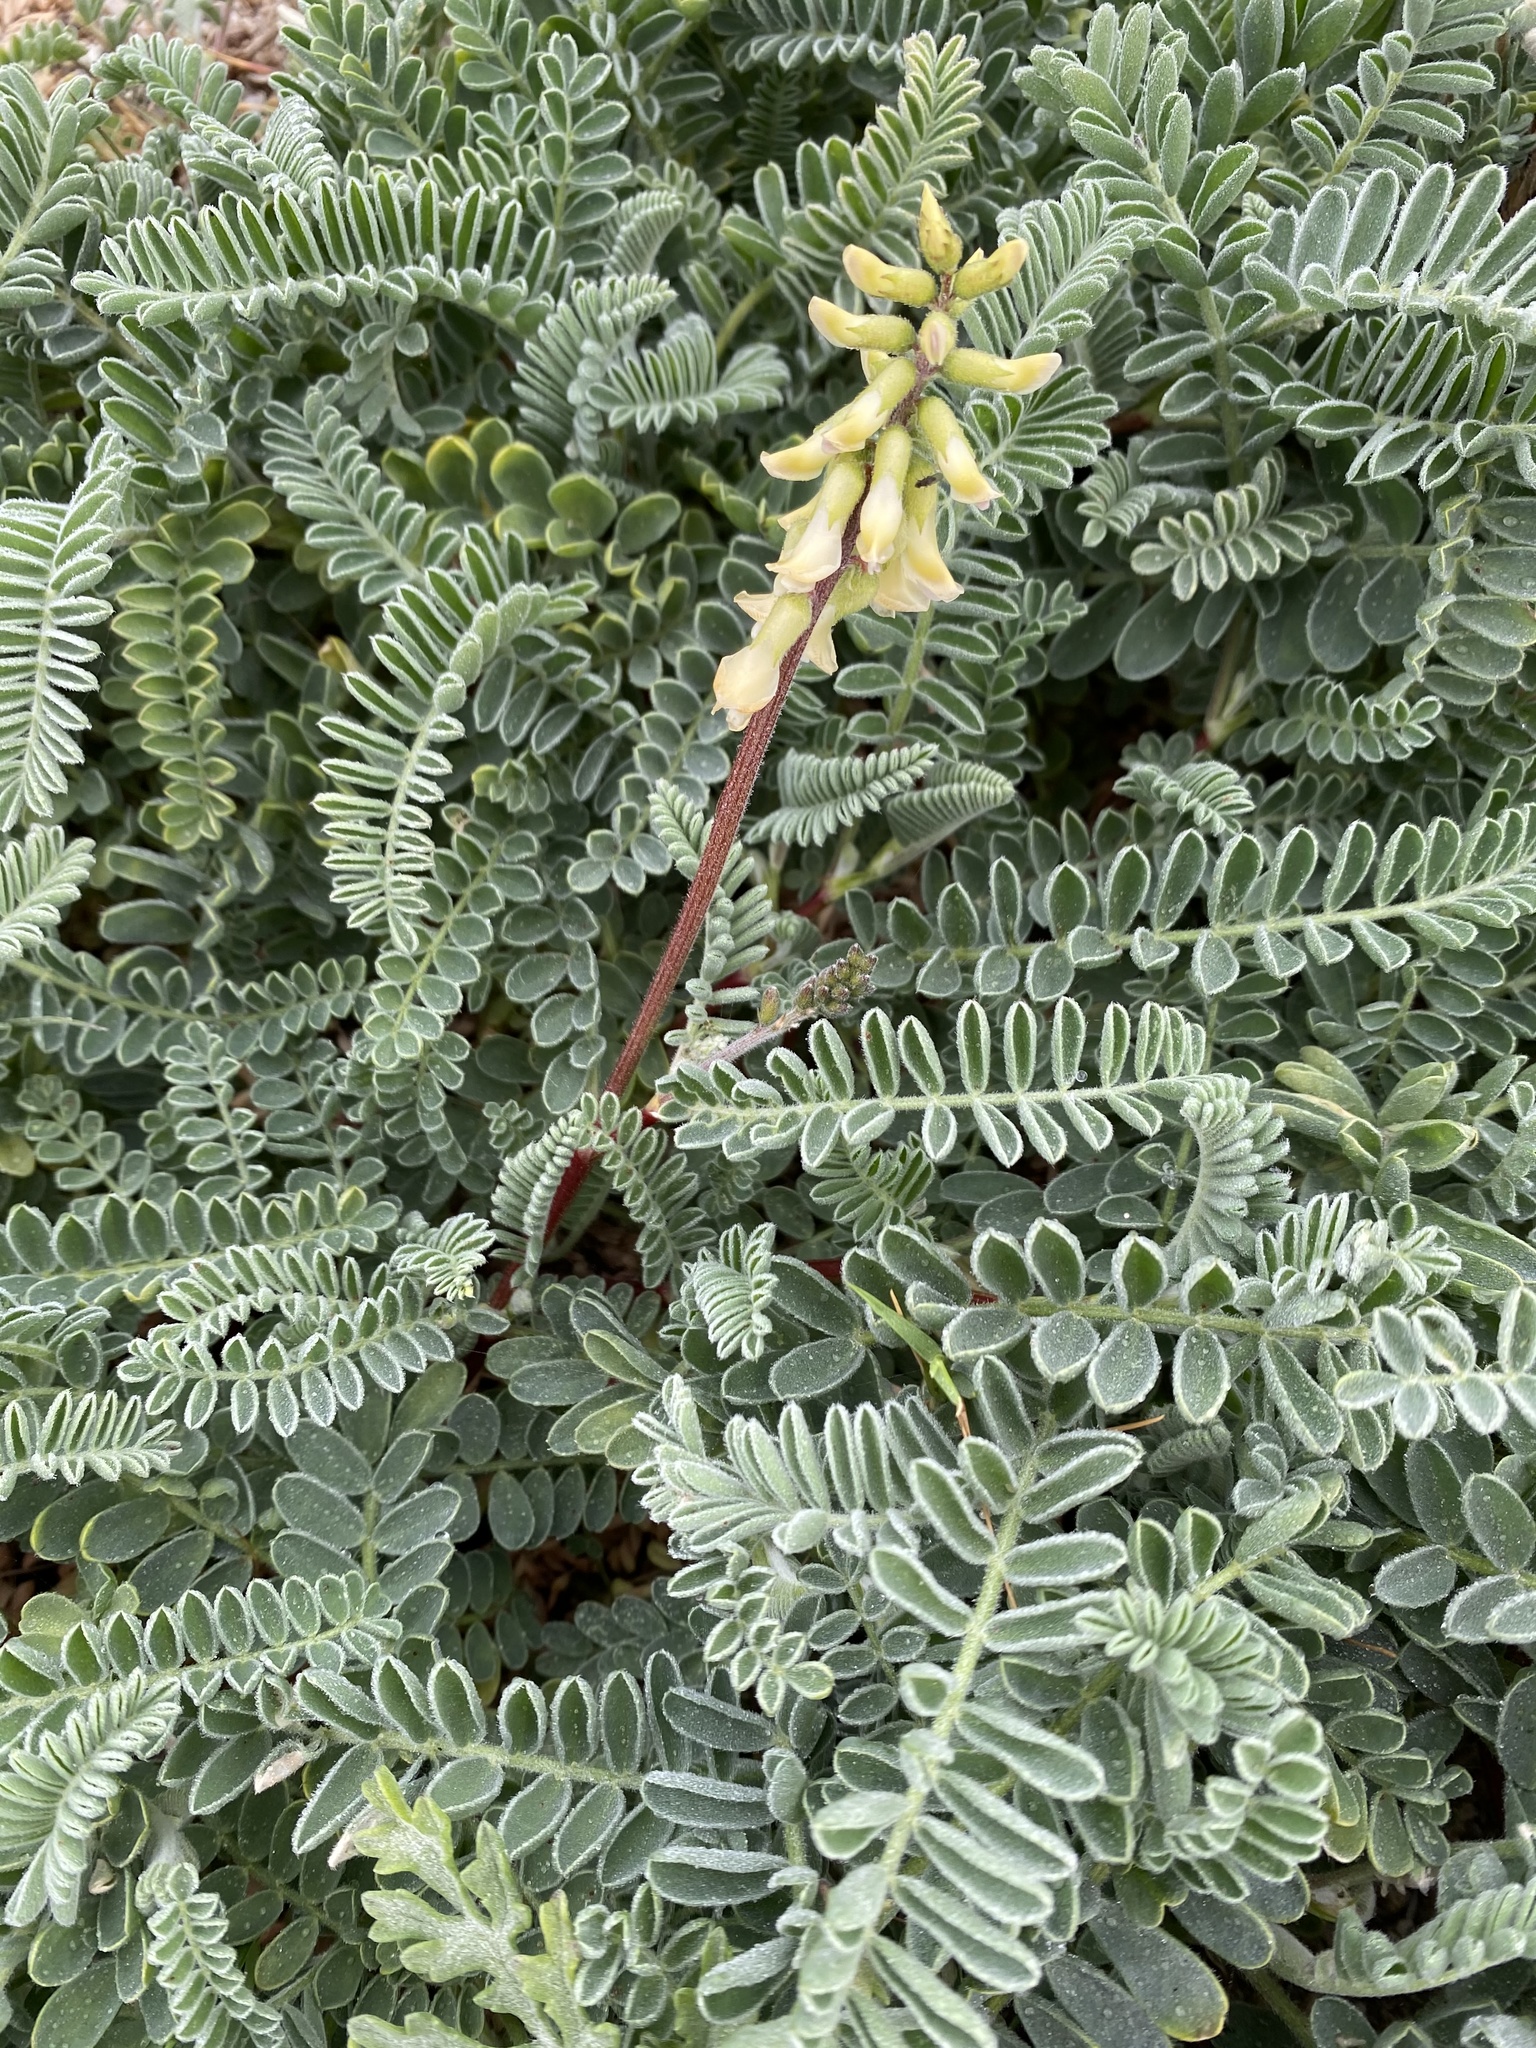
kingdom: Plantae
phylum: Tracheophyta
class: Magnoliopsida
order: Fabales
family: Fabaceae
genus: Astragalus
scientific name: Astragalus nuttallii
